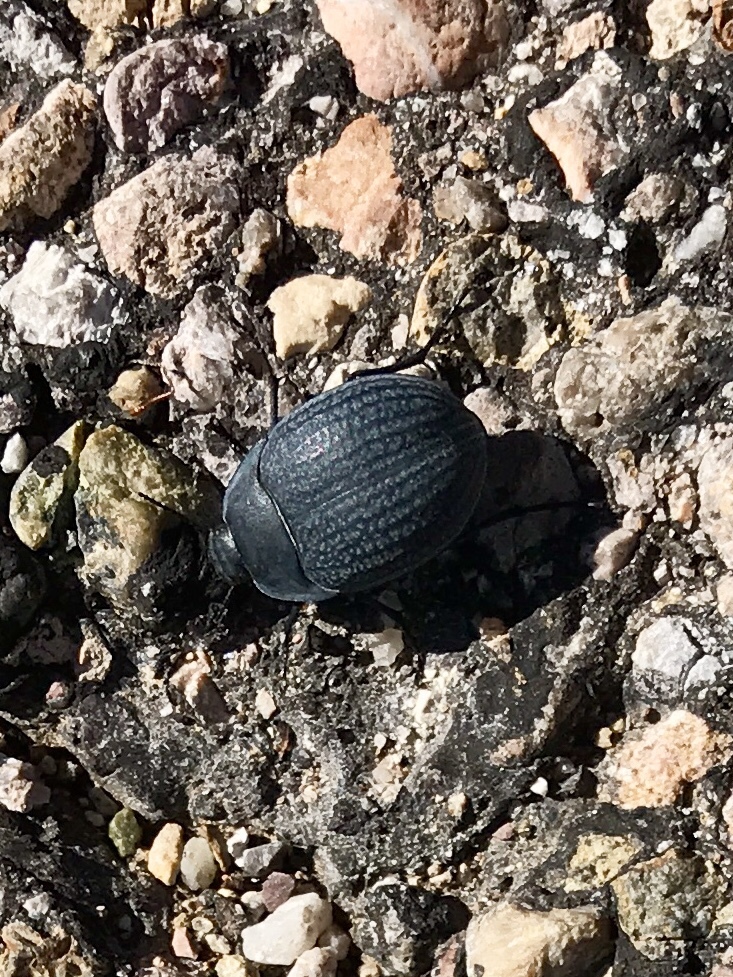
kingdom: Animalia
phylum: Arthropoda
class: Insecta
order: Coleoptera
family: Tenebrionidae
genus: Eusattus
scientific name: Eusattus reticulatus
